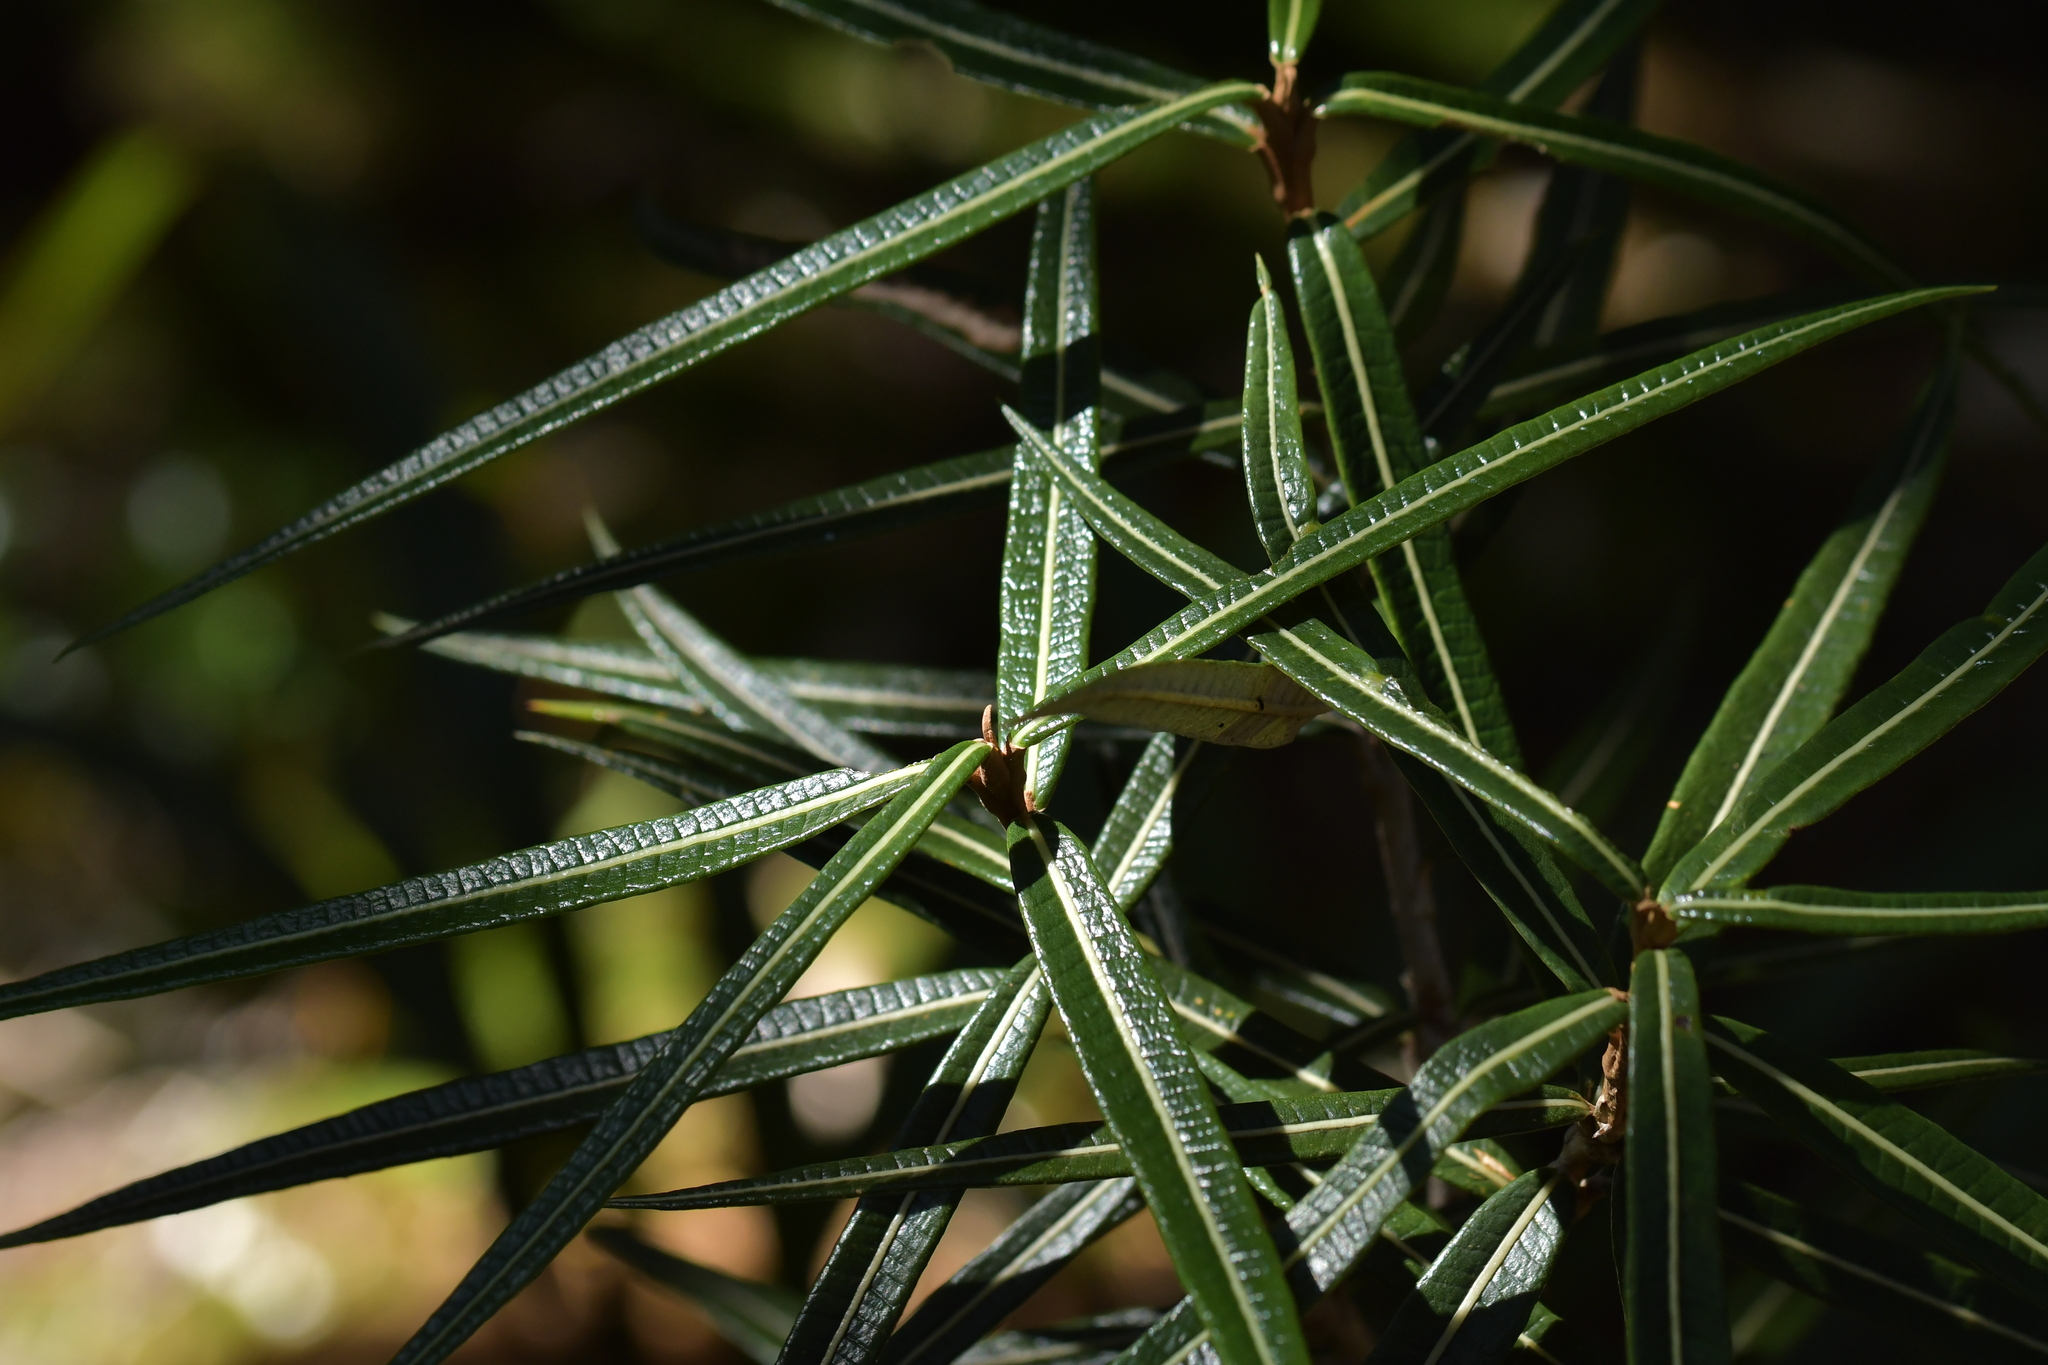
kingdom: Plantae
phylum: Tracheophyta
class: Magnoliopsida
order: Asterales
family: Asteraceae
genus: Olearia
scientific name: Olearia lacunosa
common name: Lancewood tree daisy
